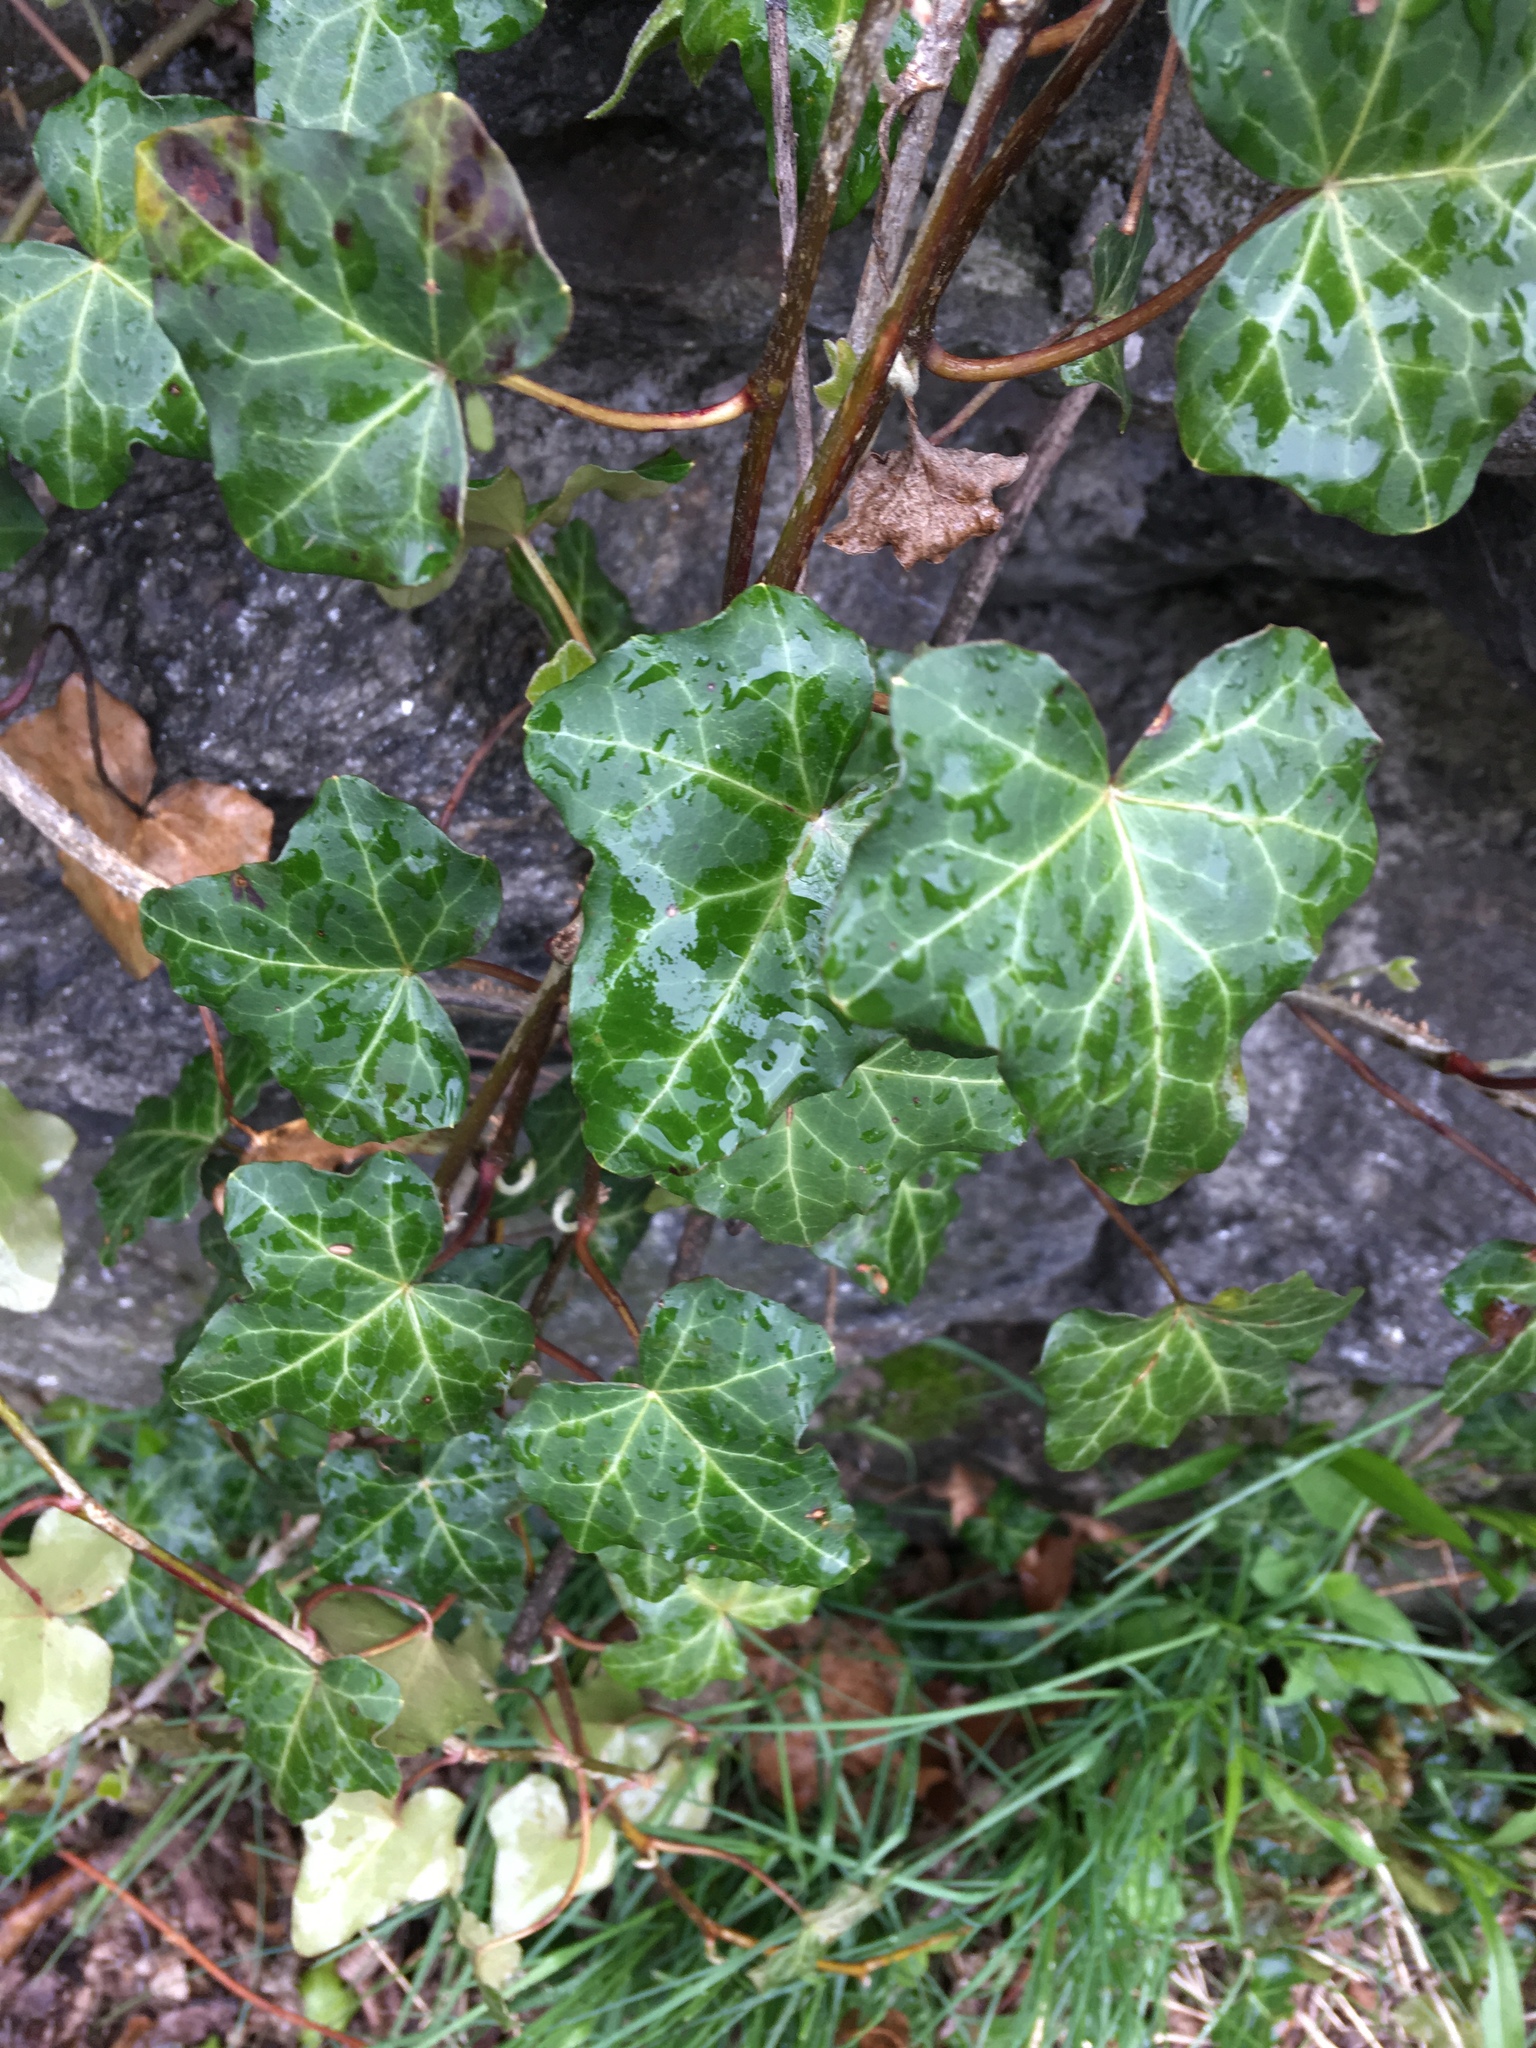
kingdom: Plantae
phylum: Tracheophyta
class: Magnoliopsida
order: Apiales
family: Araliaceae
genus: Hedera
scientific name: Hedera helix
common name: Ivy
